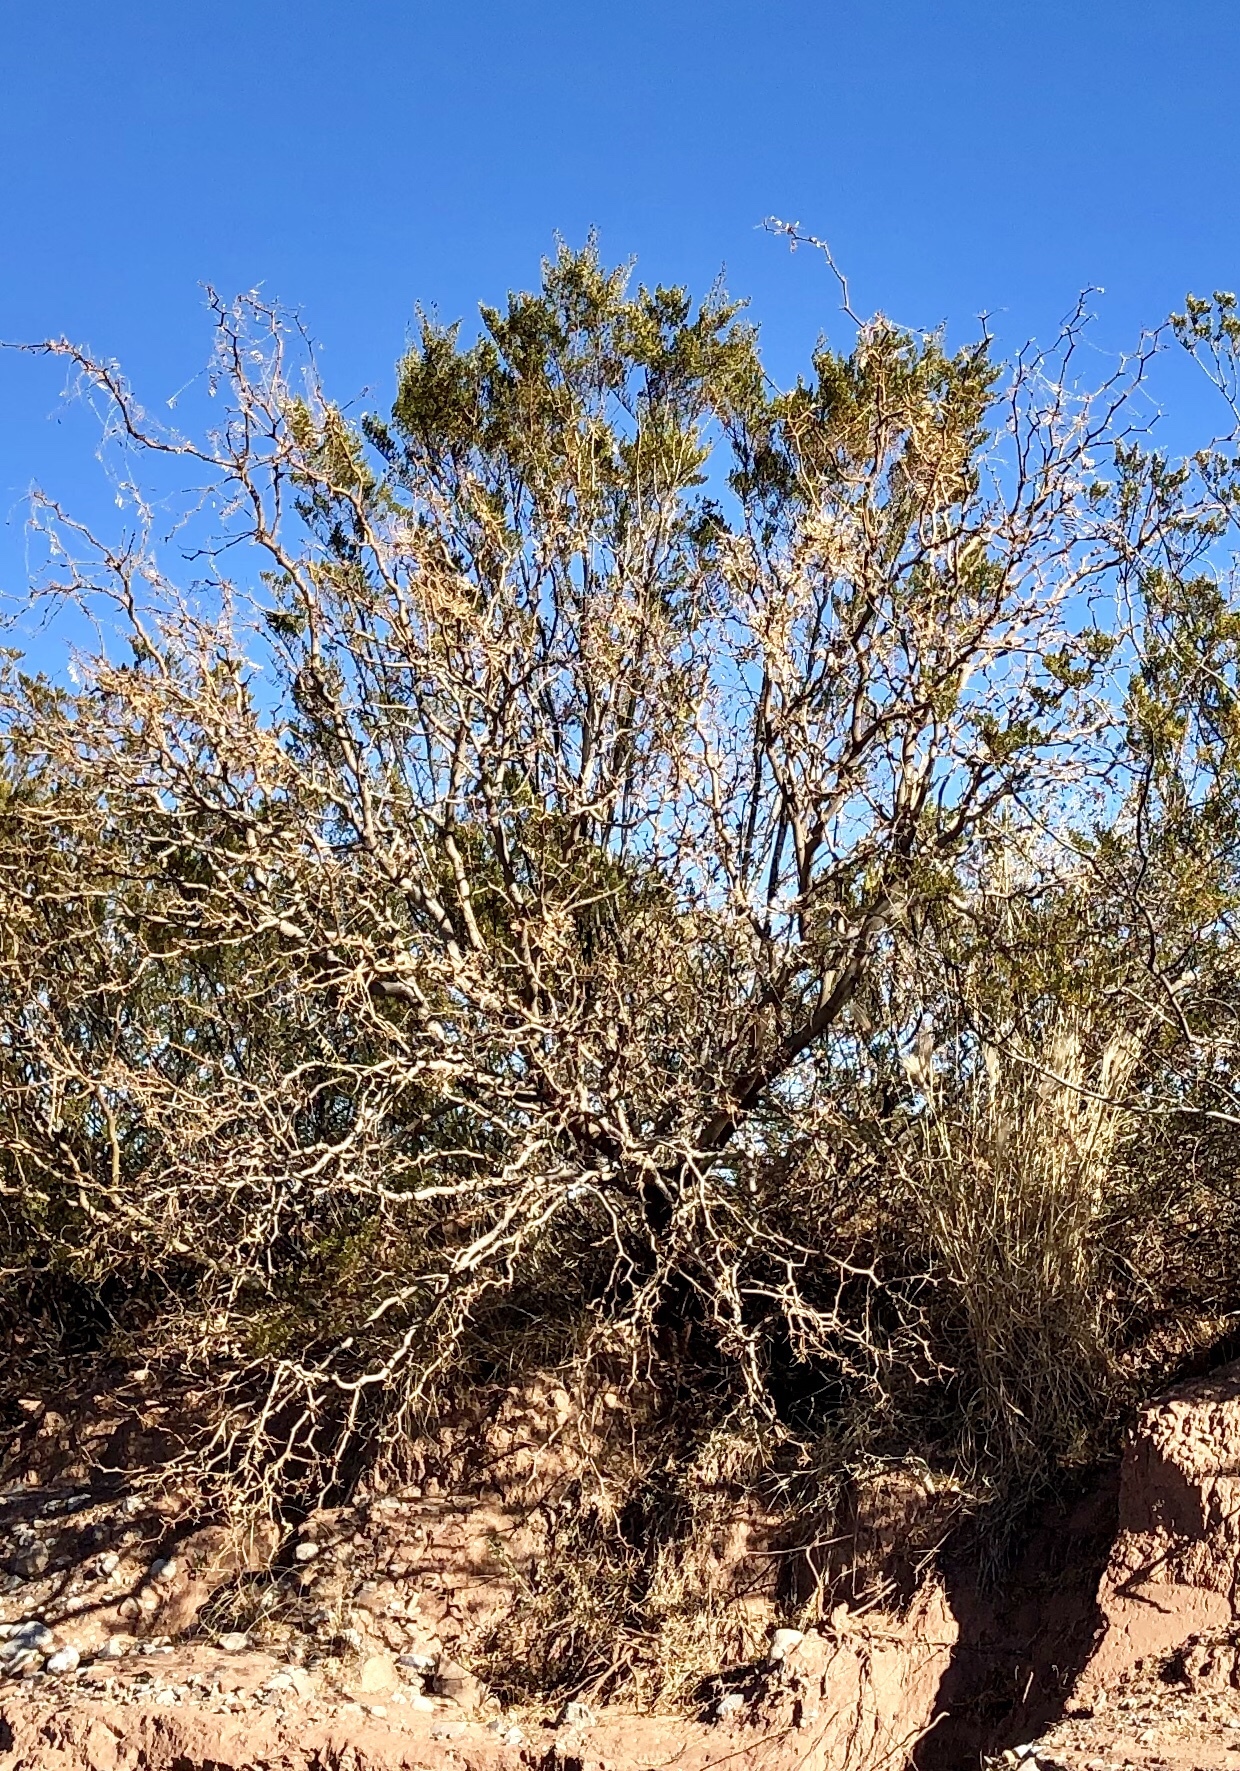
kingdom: Plantae
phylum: Tracheophyta
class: Magnoliopsida
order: Fabales
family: Fabaceae
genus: Prosopis
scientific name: Prosopis glandulosa
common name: Honey mesquite
